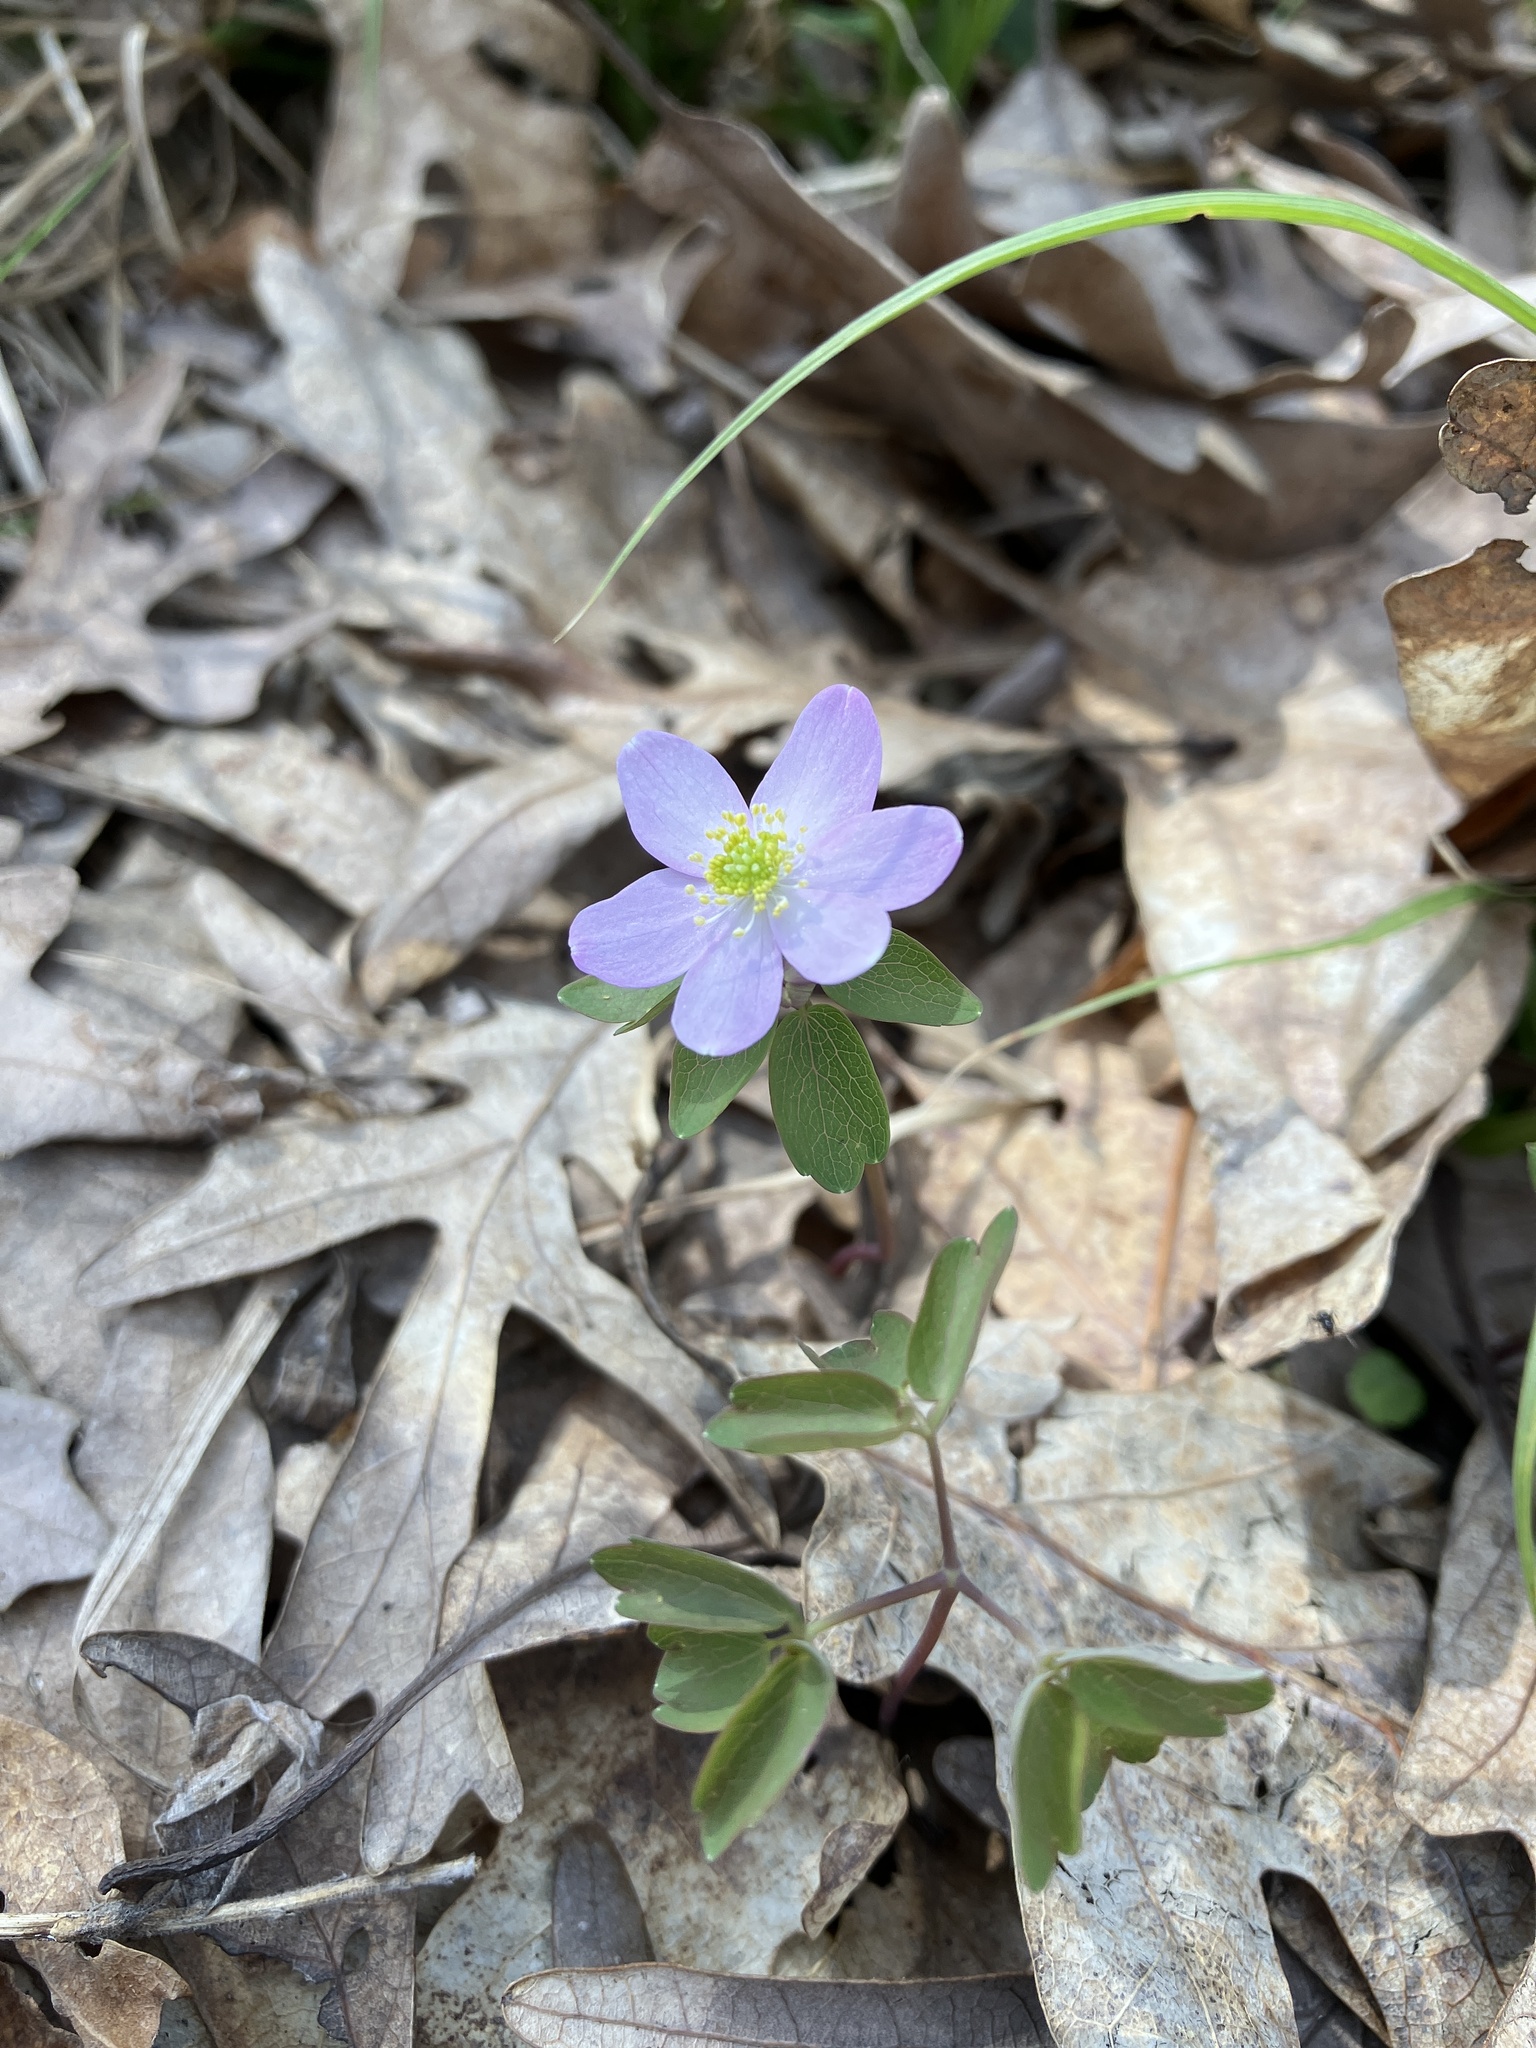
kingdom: Plantae
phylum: Tracheophyta
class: Magnoliopsida
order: Ranunculales
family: Ranunculaceae
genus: Thalictrum
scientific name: Thalictrum thalictroides
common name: Rue-anemone
